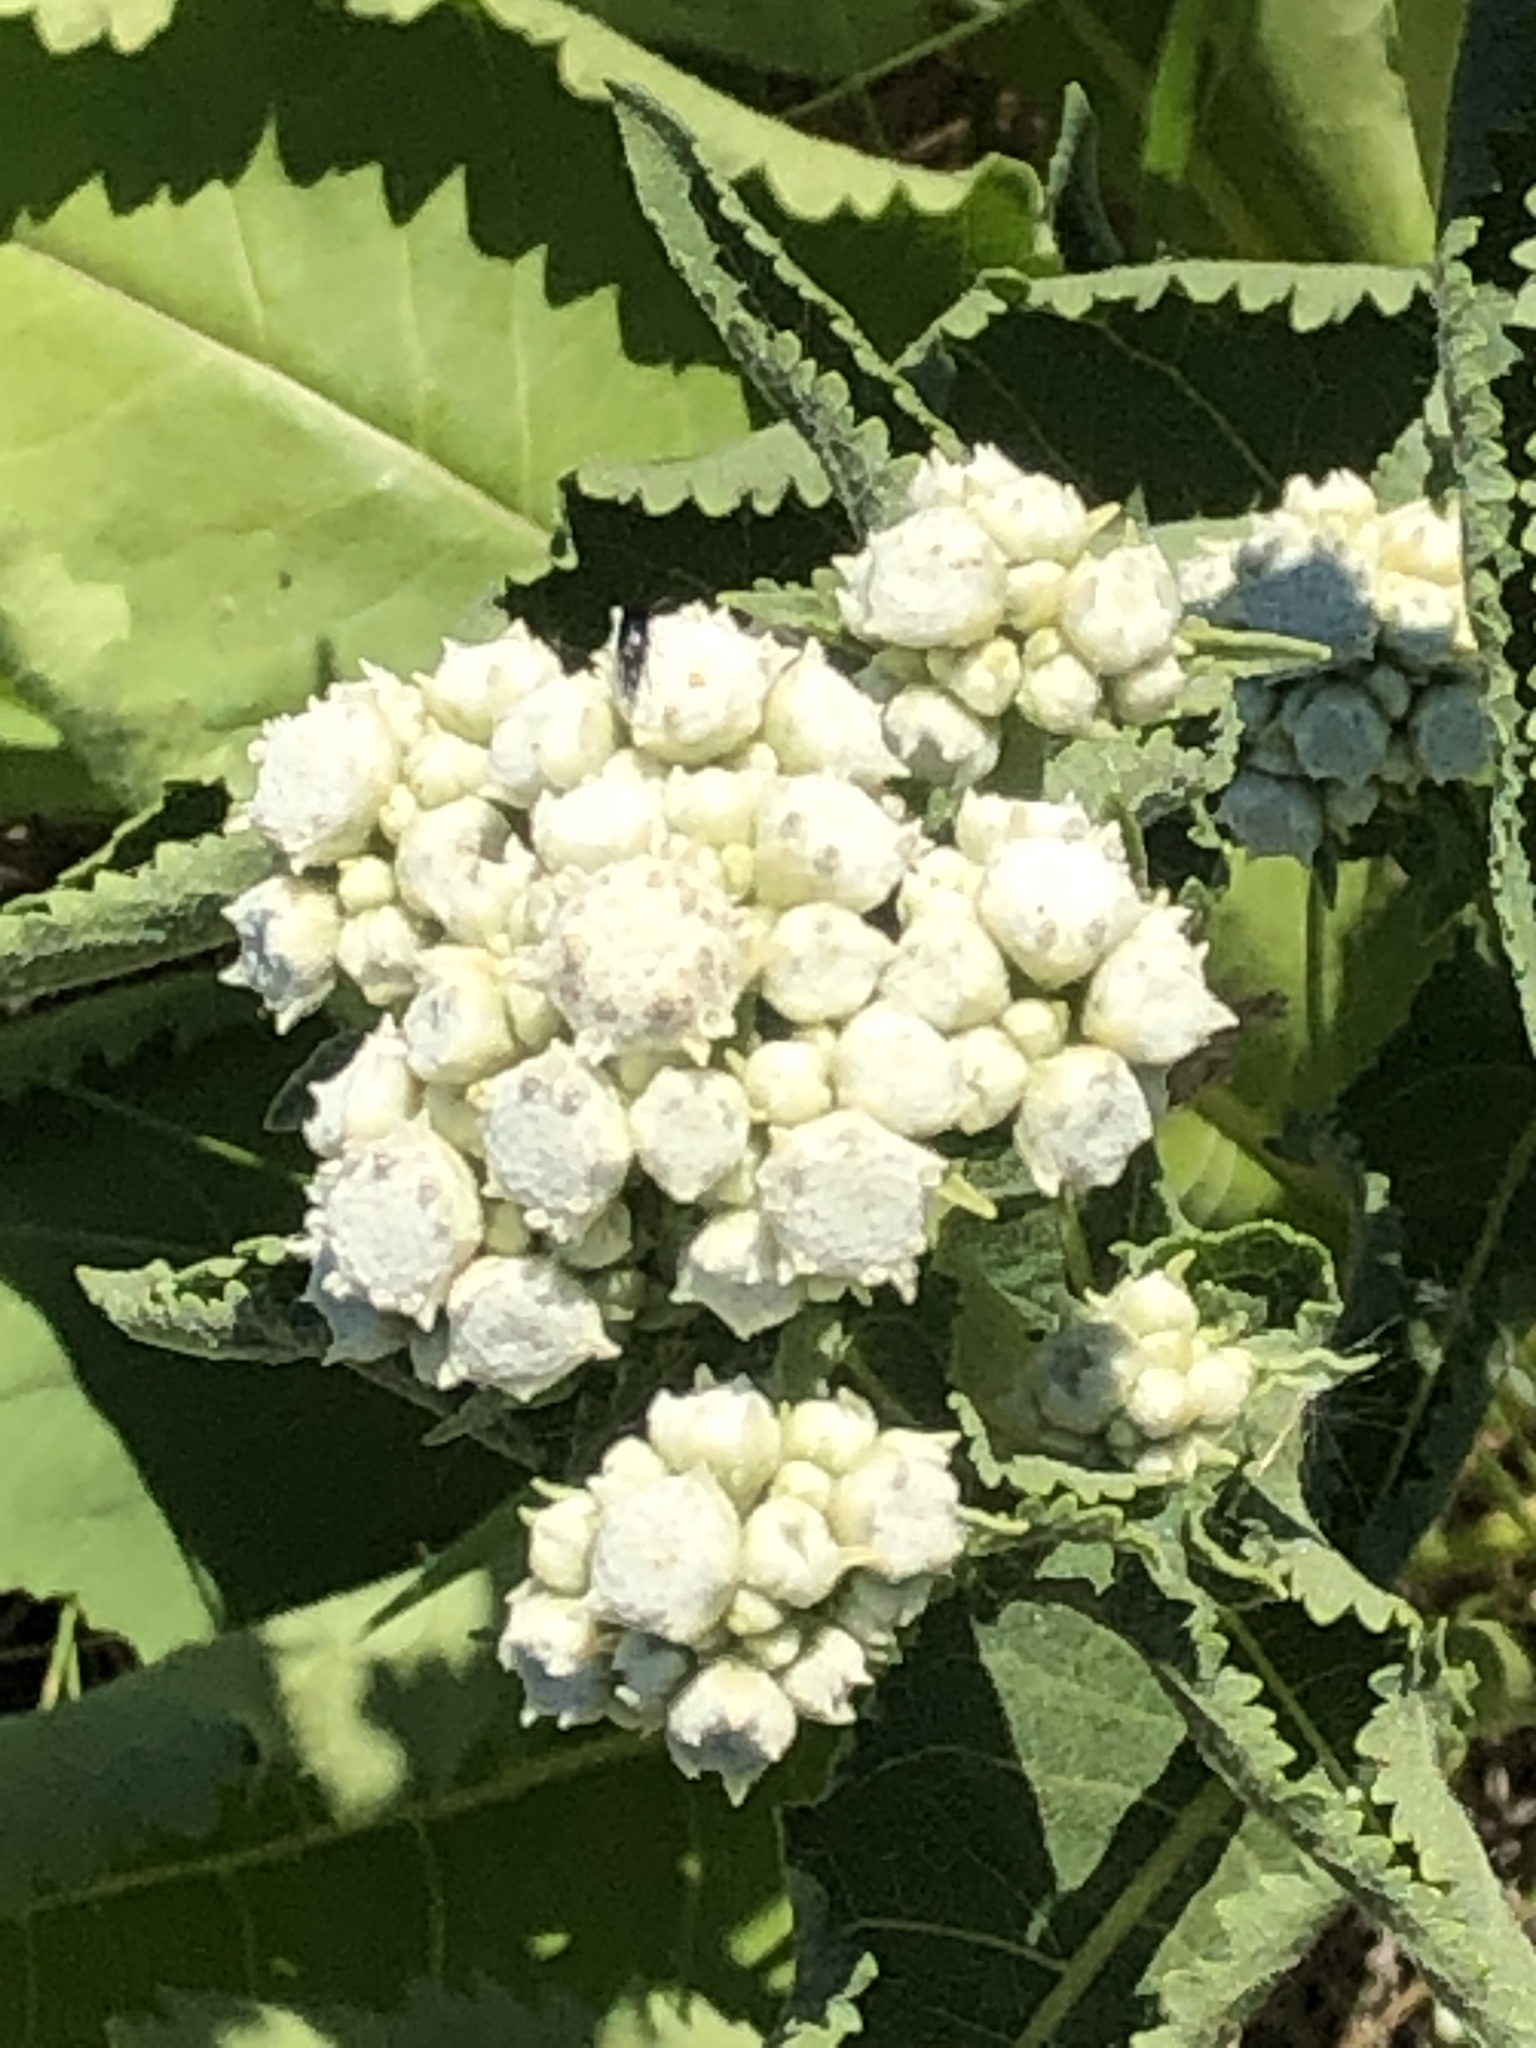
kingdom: Plantae
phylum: Tracheophyta
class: Magnoliopsida
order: Asterales
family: Asteraceae
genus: Parthenium
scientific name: Parthenium integrifolium
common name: American feverfew
